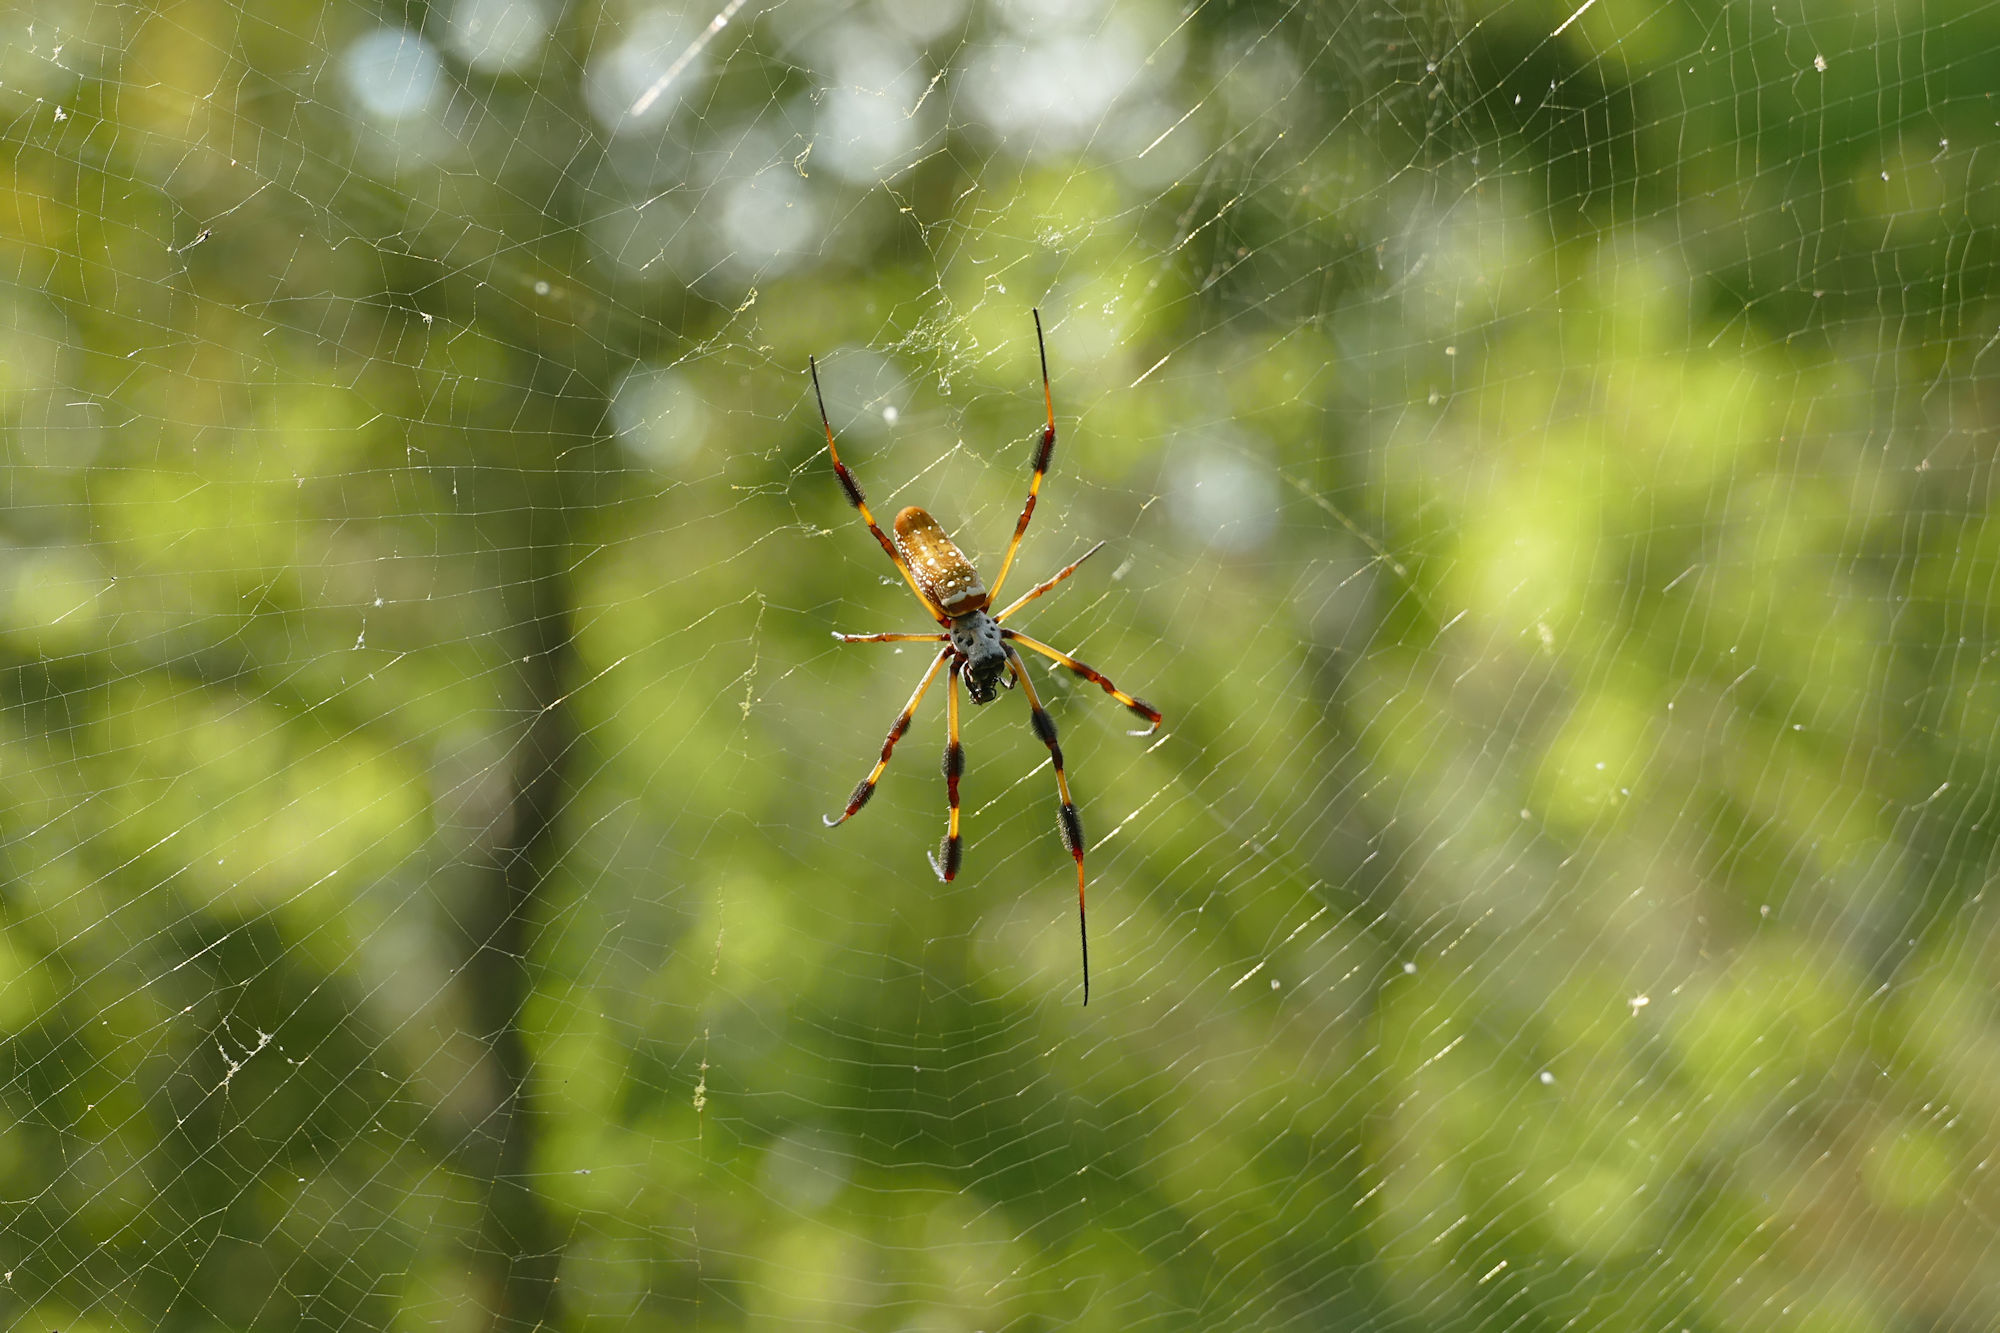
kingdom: Animalia
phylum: Arthropoda
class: Arachnida
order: Araneae
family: Araneidae
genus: Trichonephila
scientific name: Trichonephila clavipes
